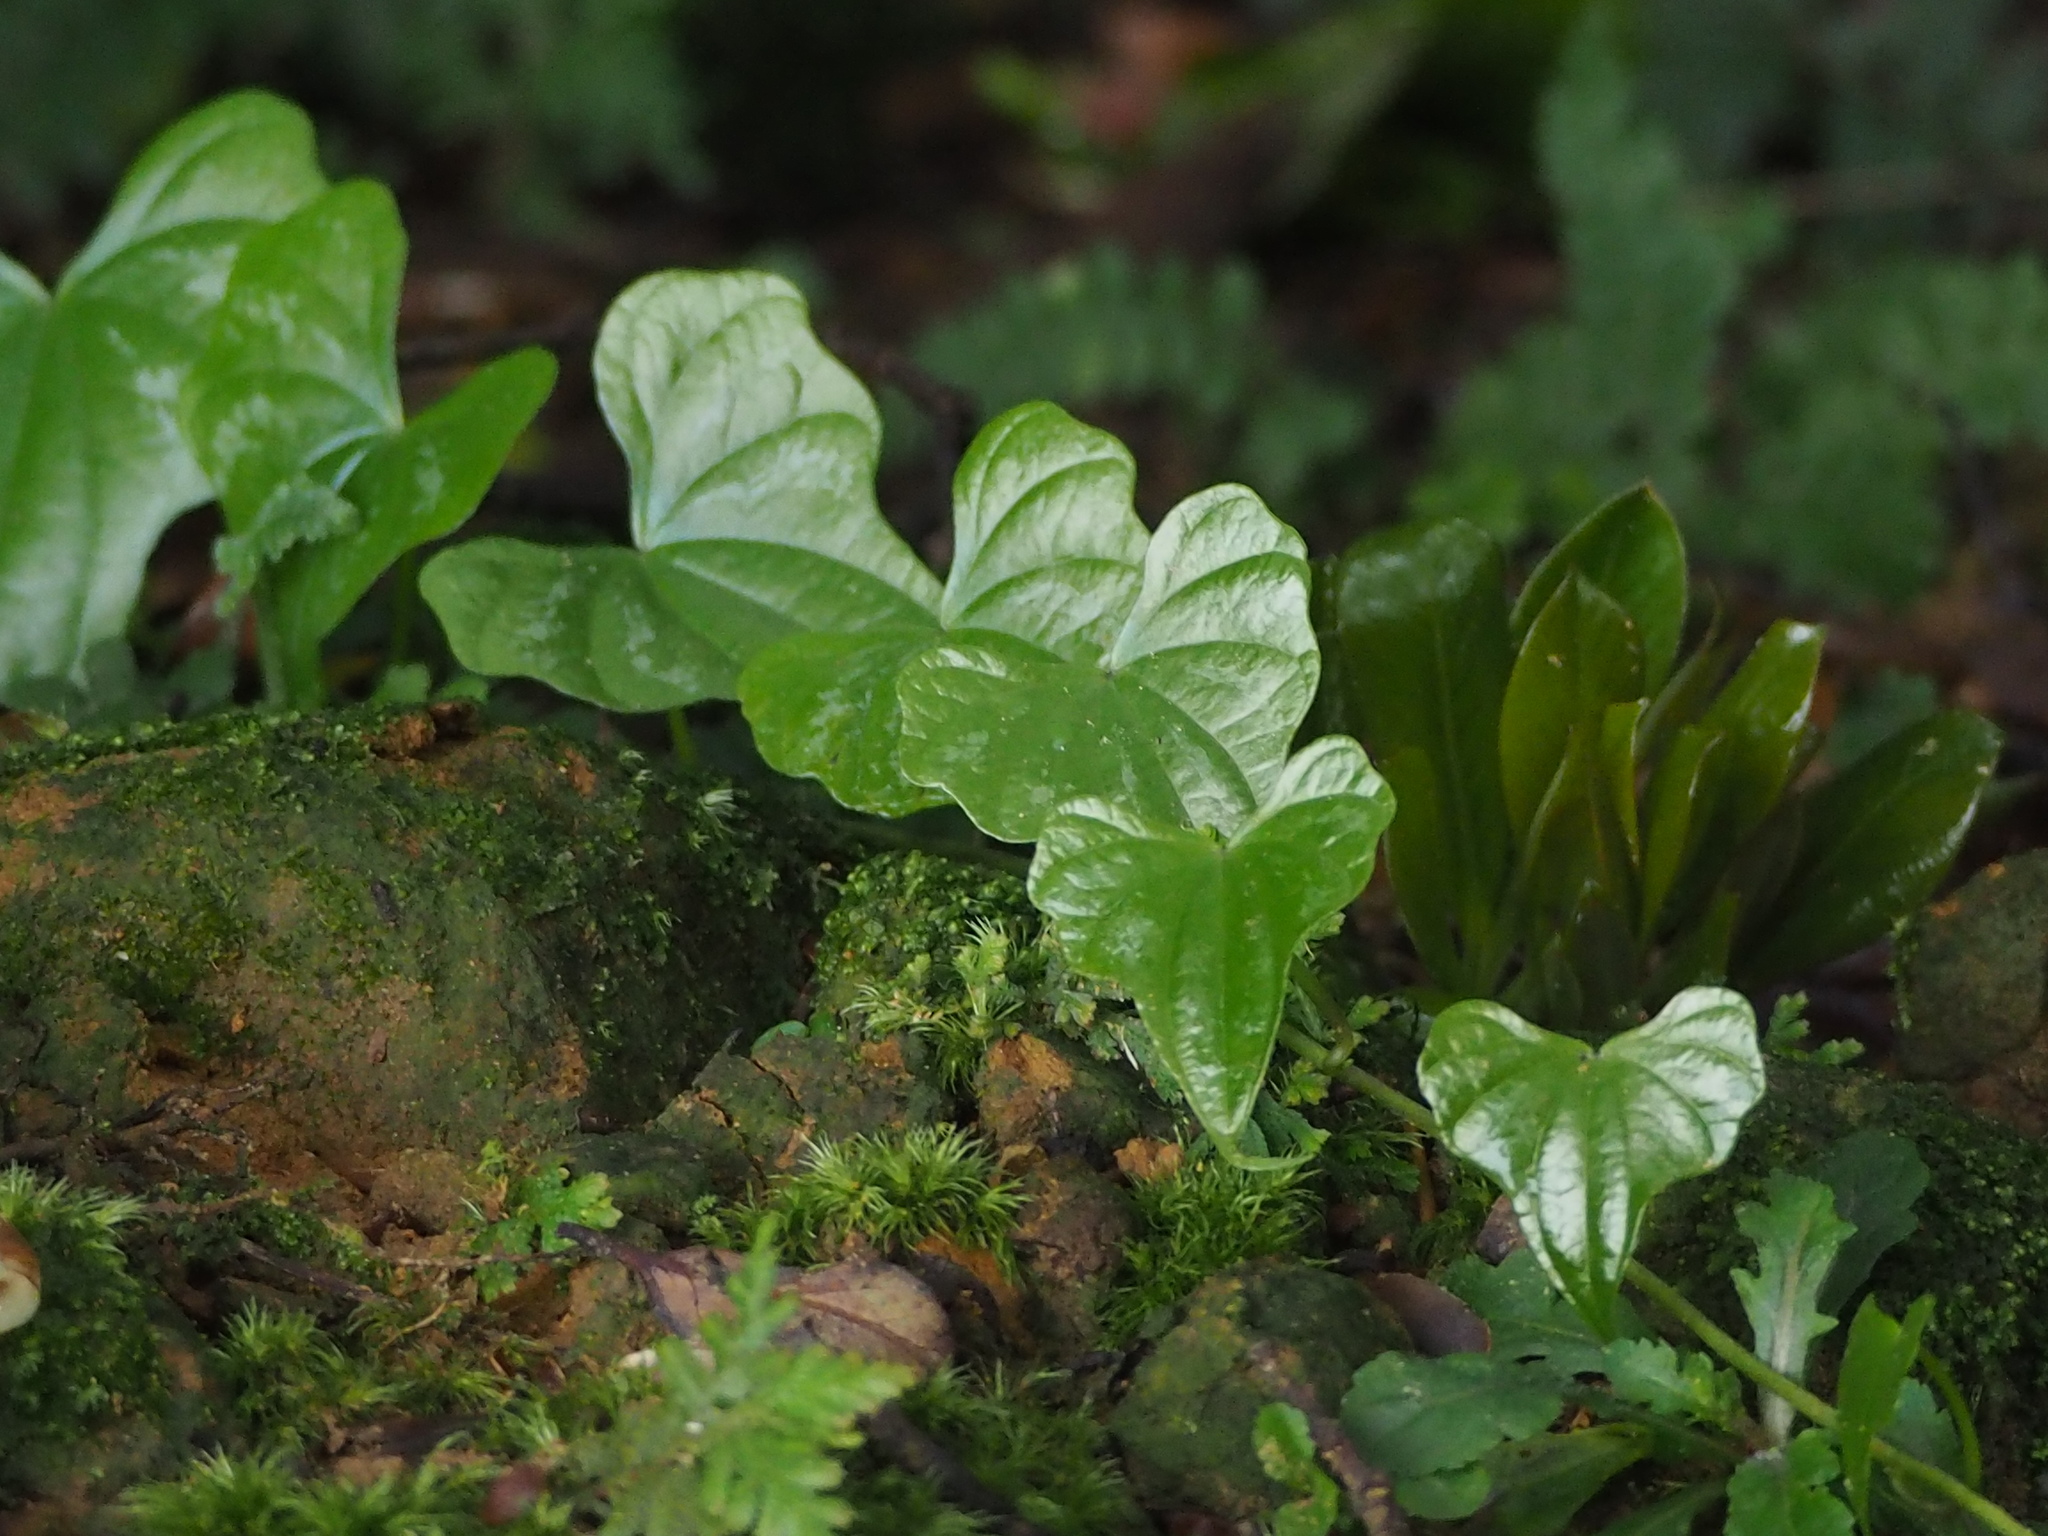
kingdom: Plantae
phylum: Tracheophyta
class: Liliopsida
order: Dioscoreales
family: Dioscoreaceae
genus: Dioscorea
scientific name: Dioscorea collettii
